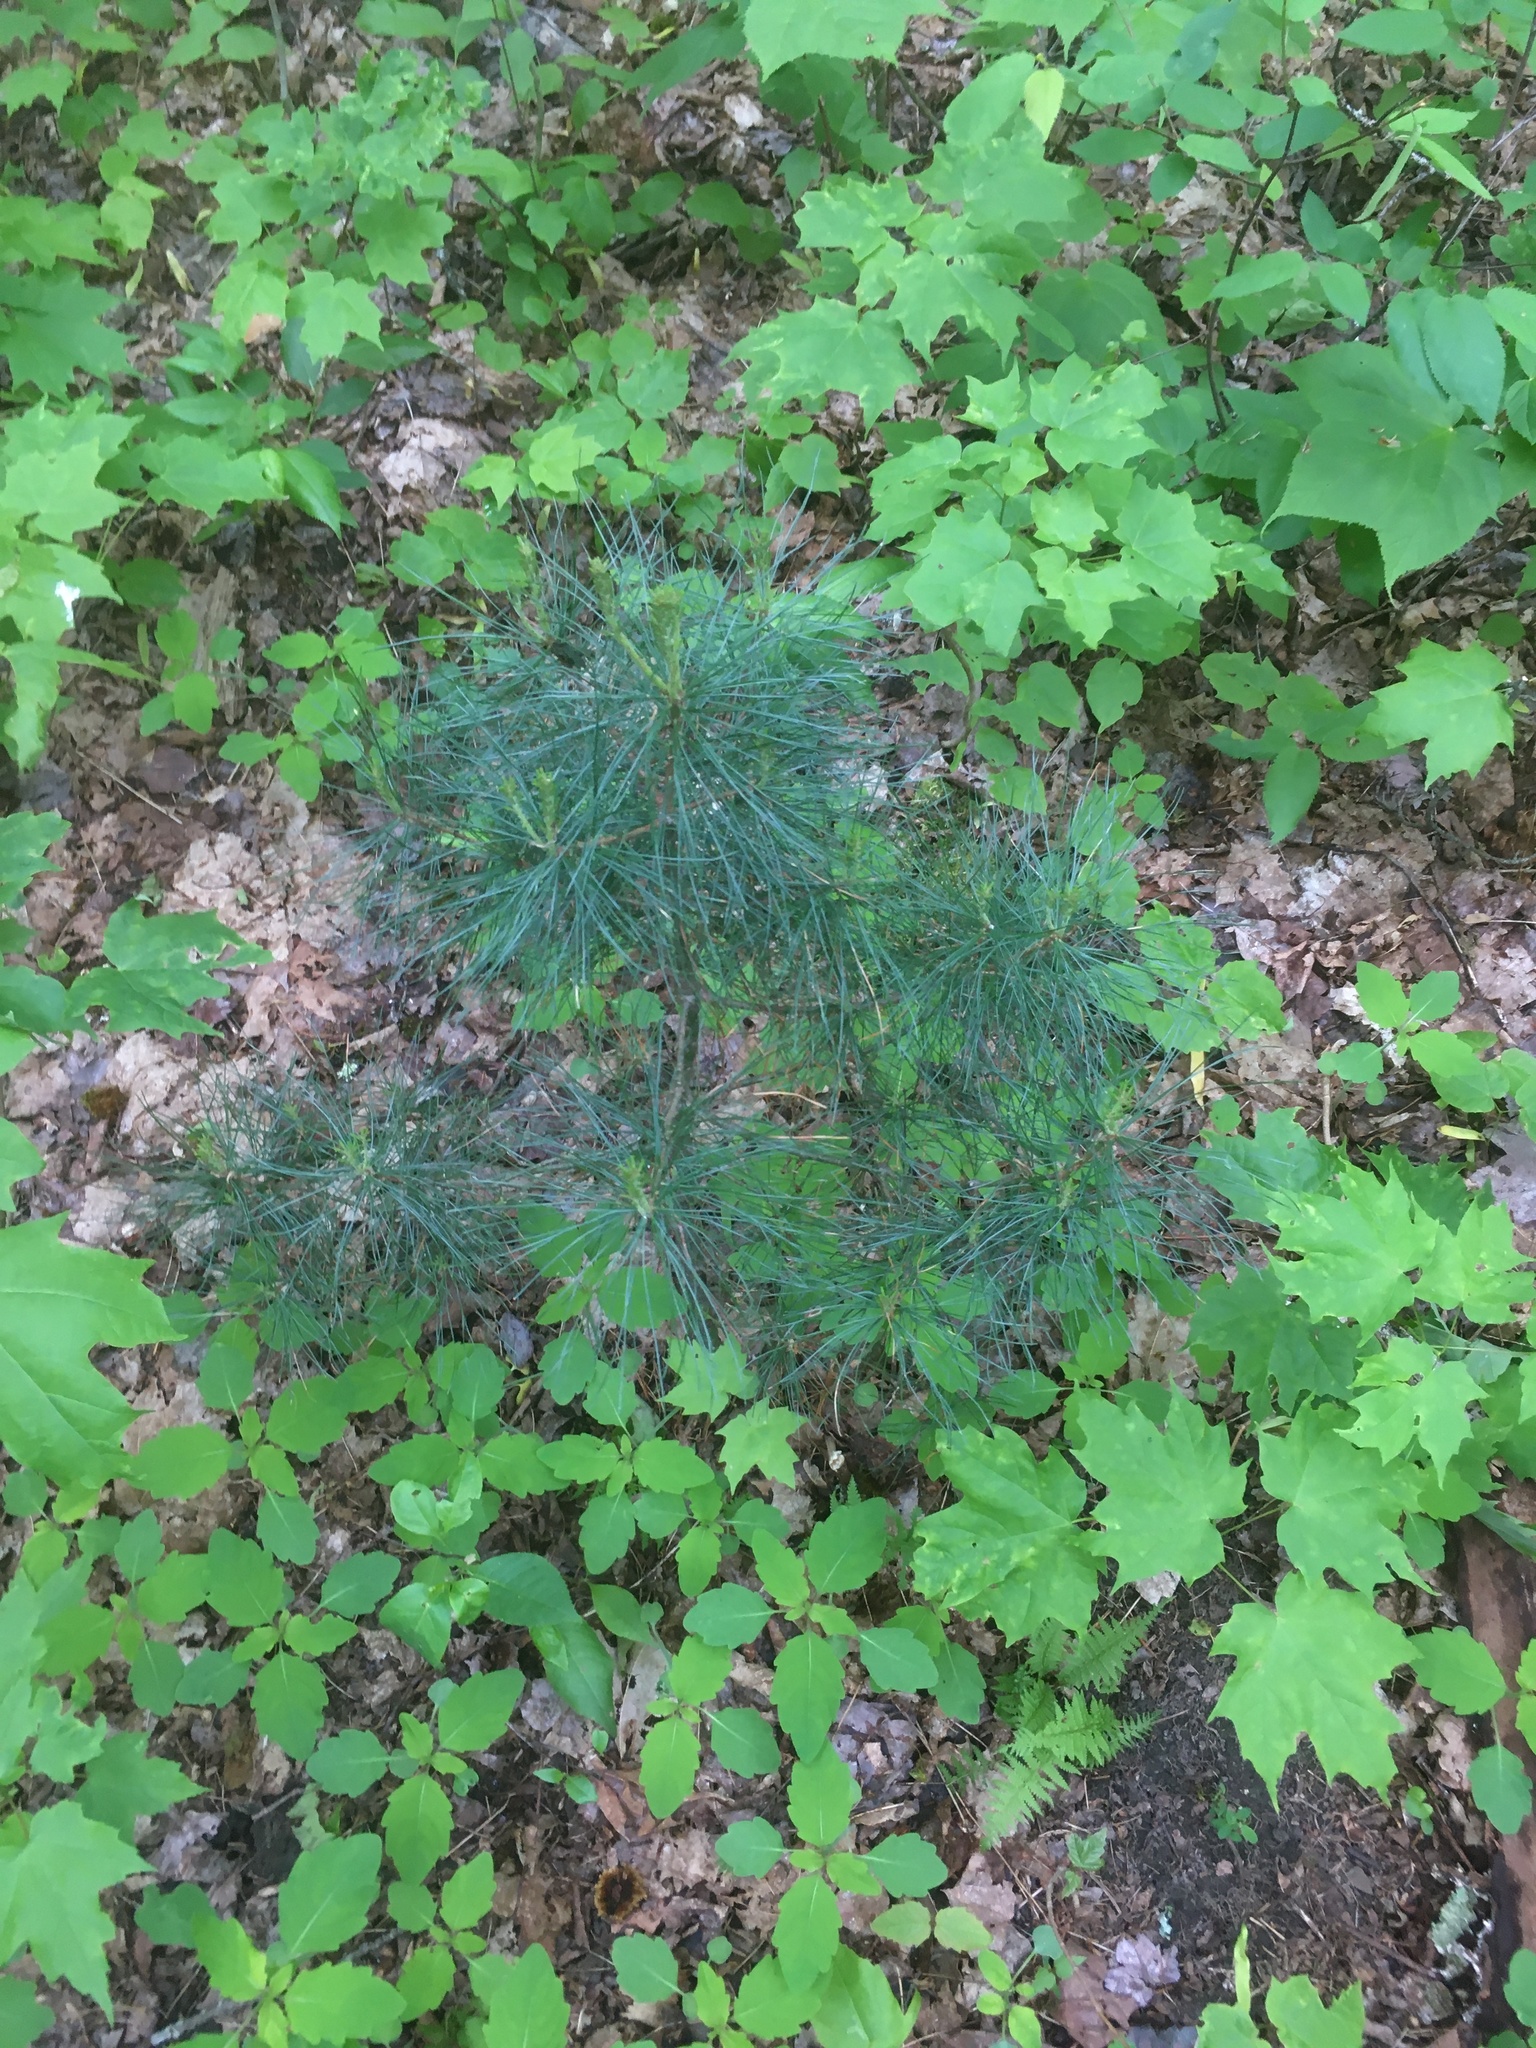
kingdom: Plantae
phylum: Tracheophyta
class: Pinopsida
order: Pinales
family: Pinaceae
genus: Pinus
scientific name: Pinus strobus
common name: Weymouth pine
